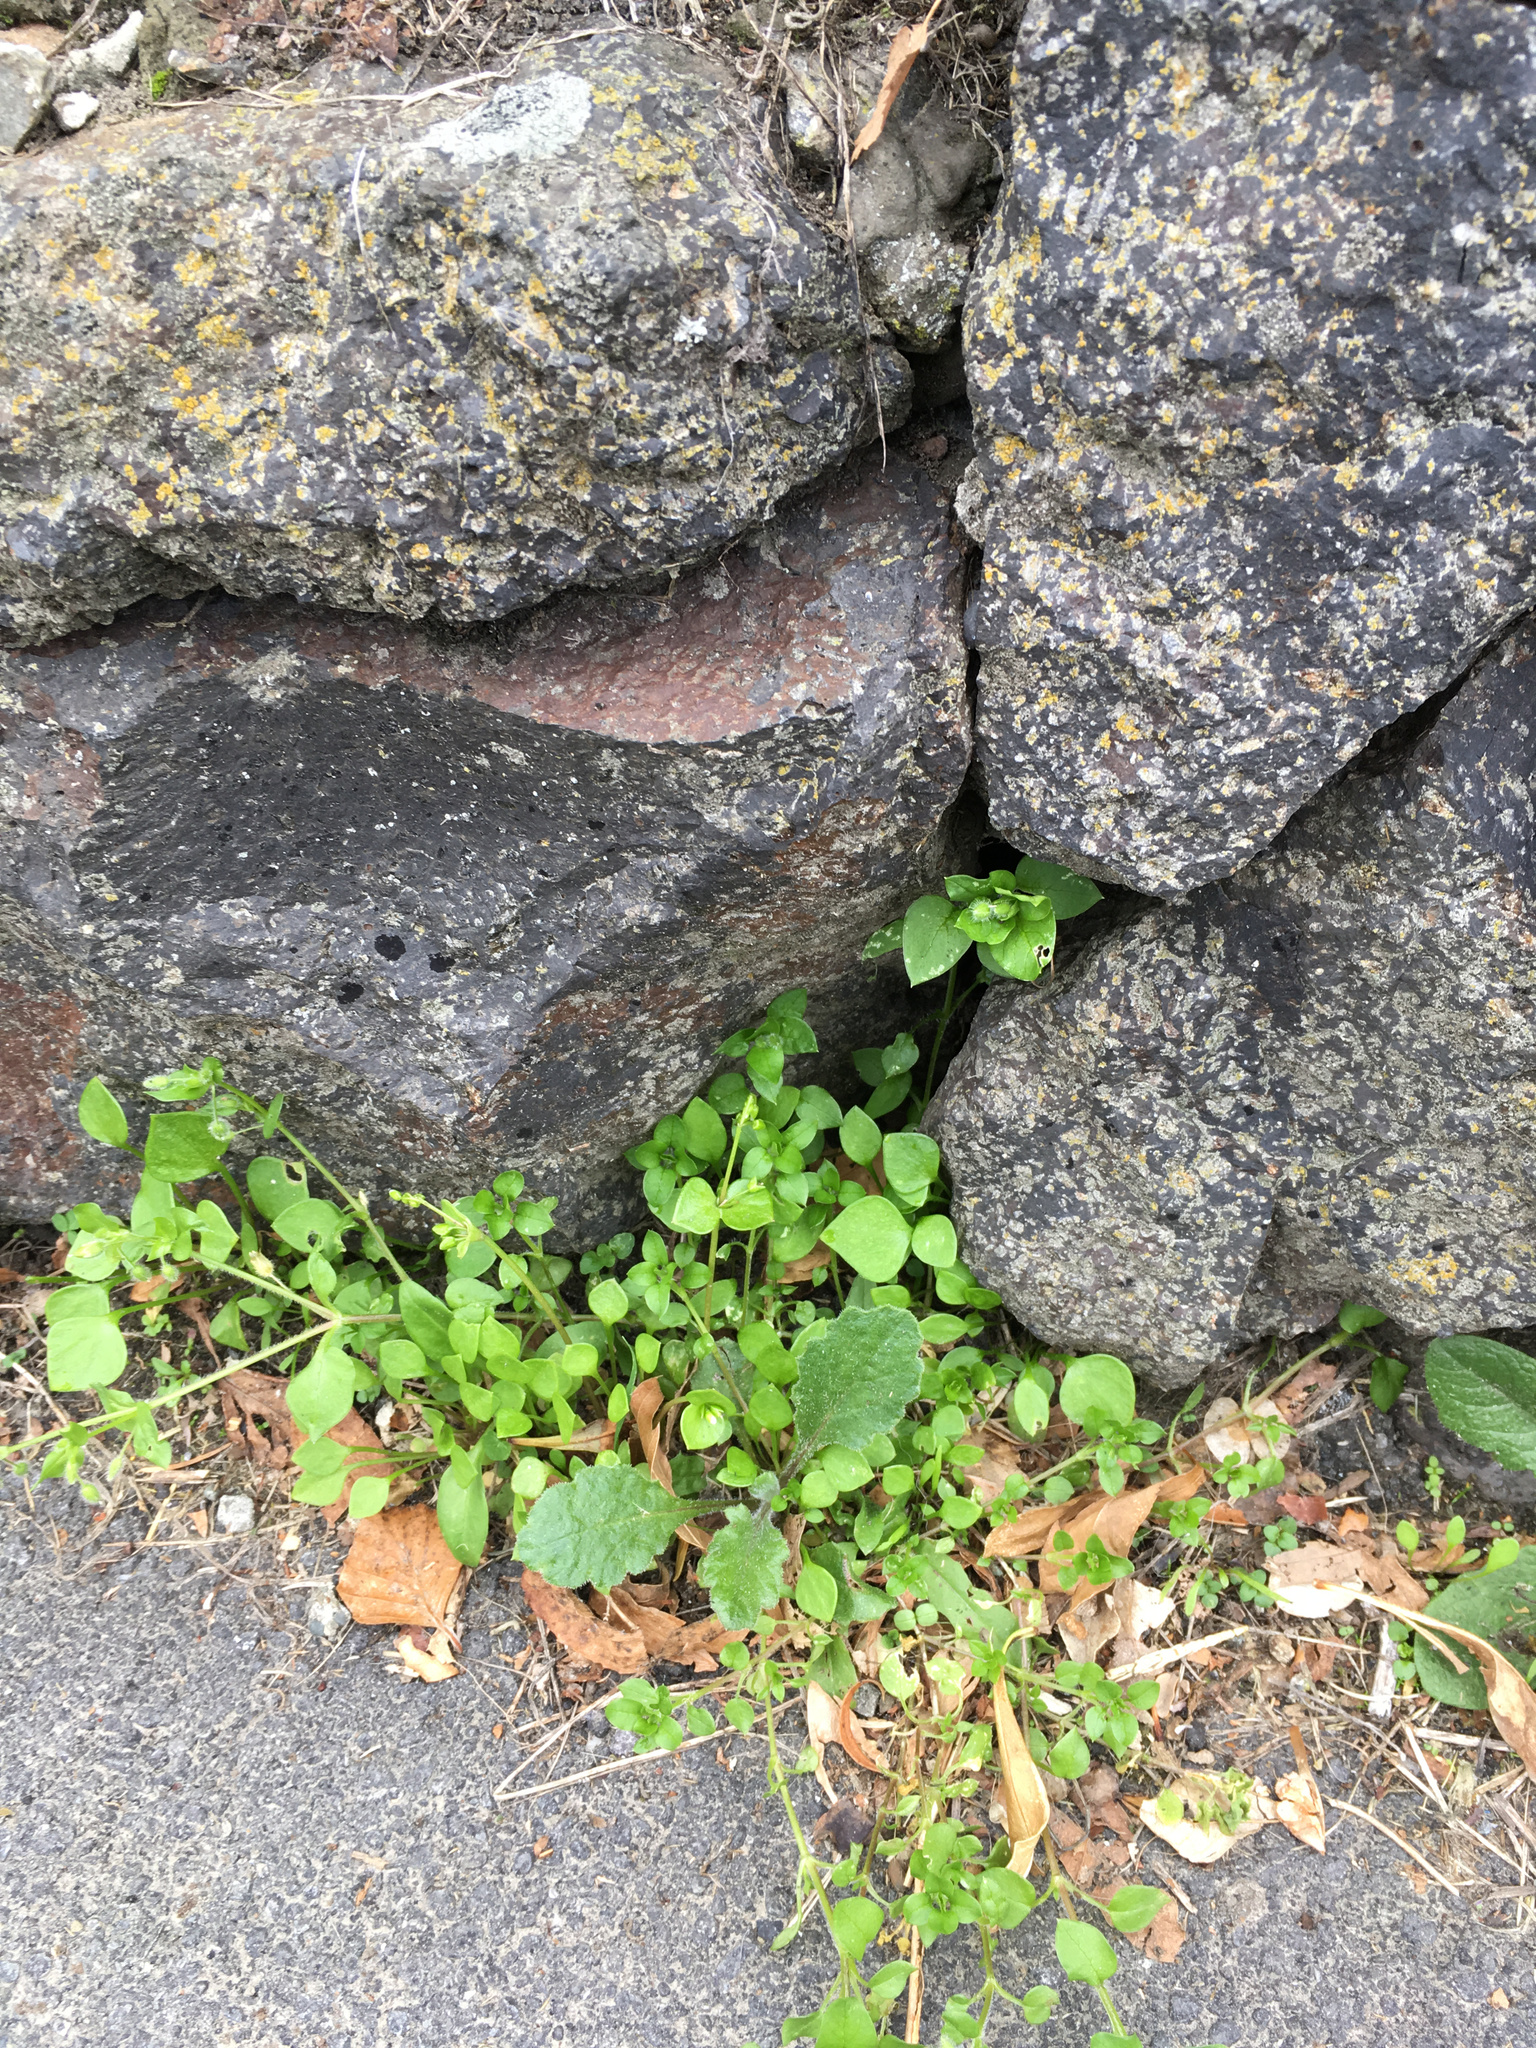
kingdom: Plantae
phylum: Tracheophyta
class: Magnoliopsida
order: Asterales
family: Asteraceae
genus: Senecio
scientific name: Senecio minimus
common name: Toothed fireweed
